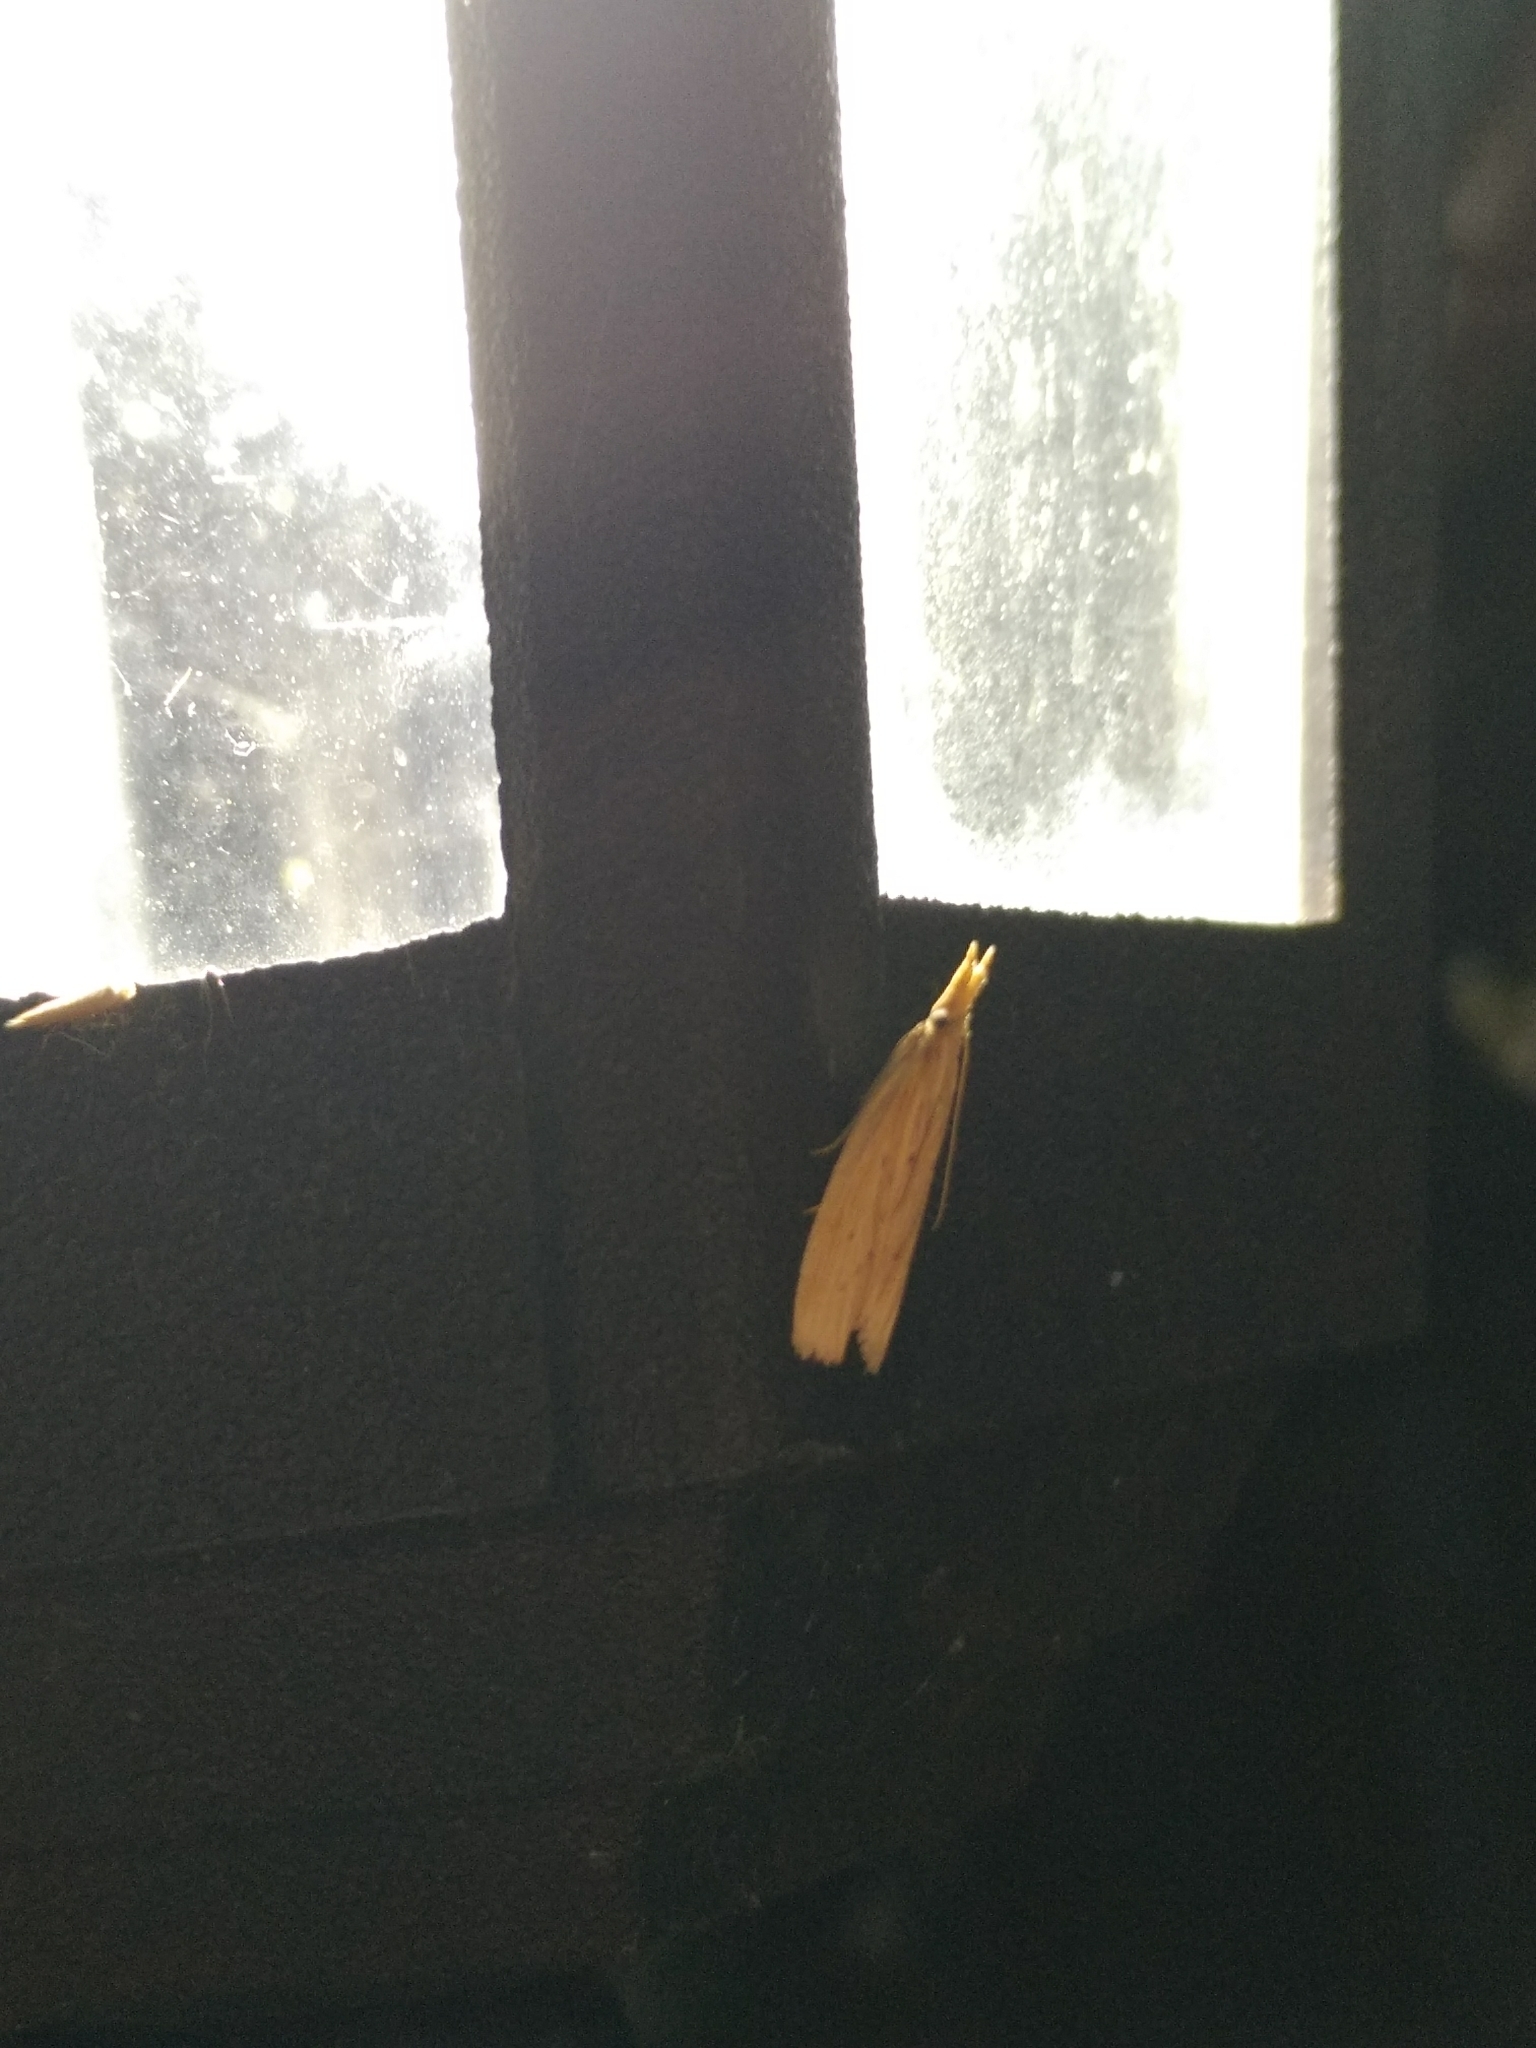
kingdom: Animalia
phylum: Arthropoda
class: Insecta
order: Lepidoptera
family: Pyralidae
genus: Ematheudes
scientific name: Ematheudes punctellus
